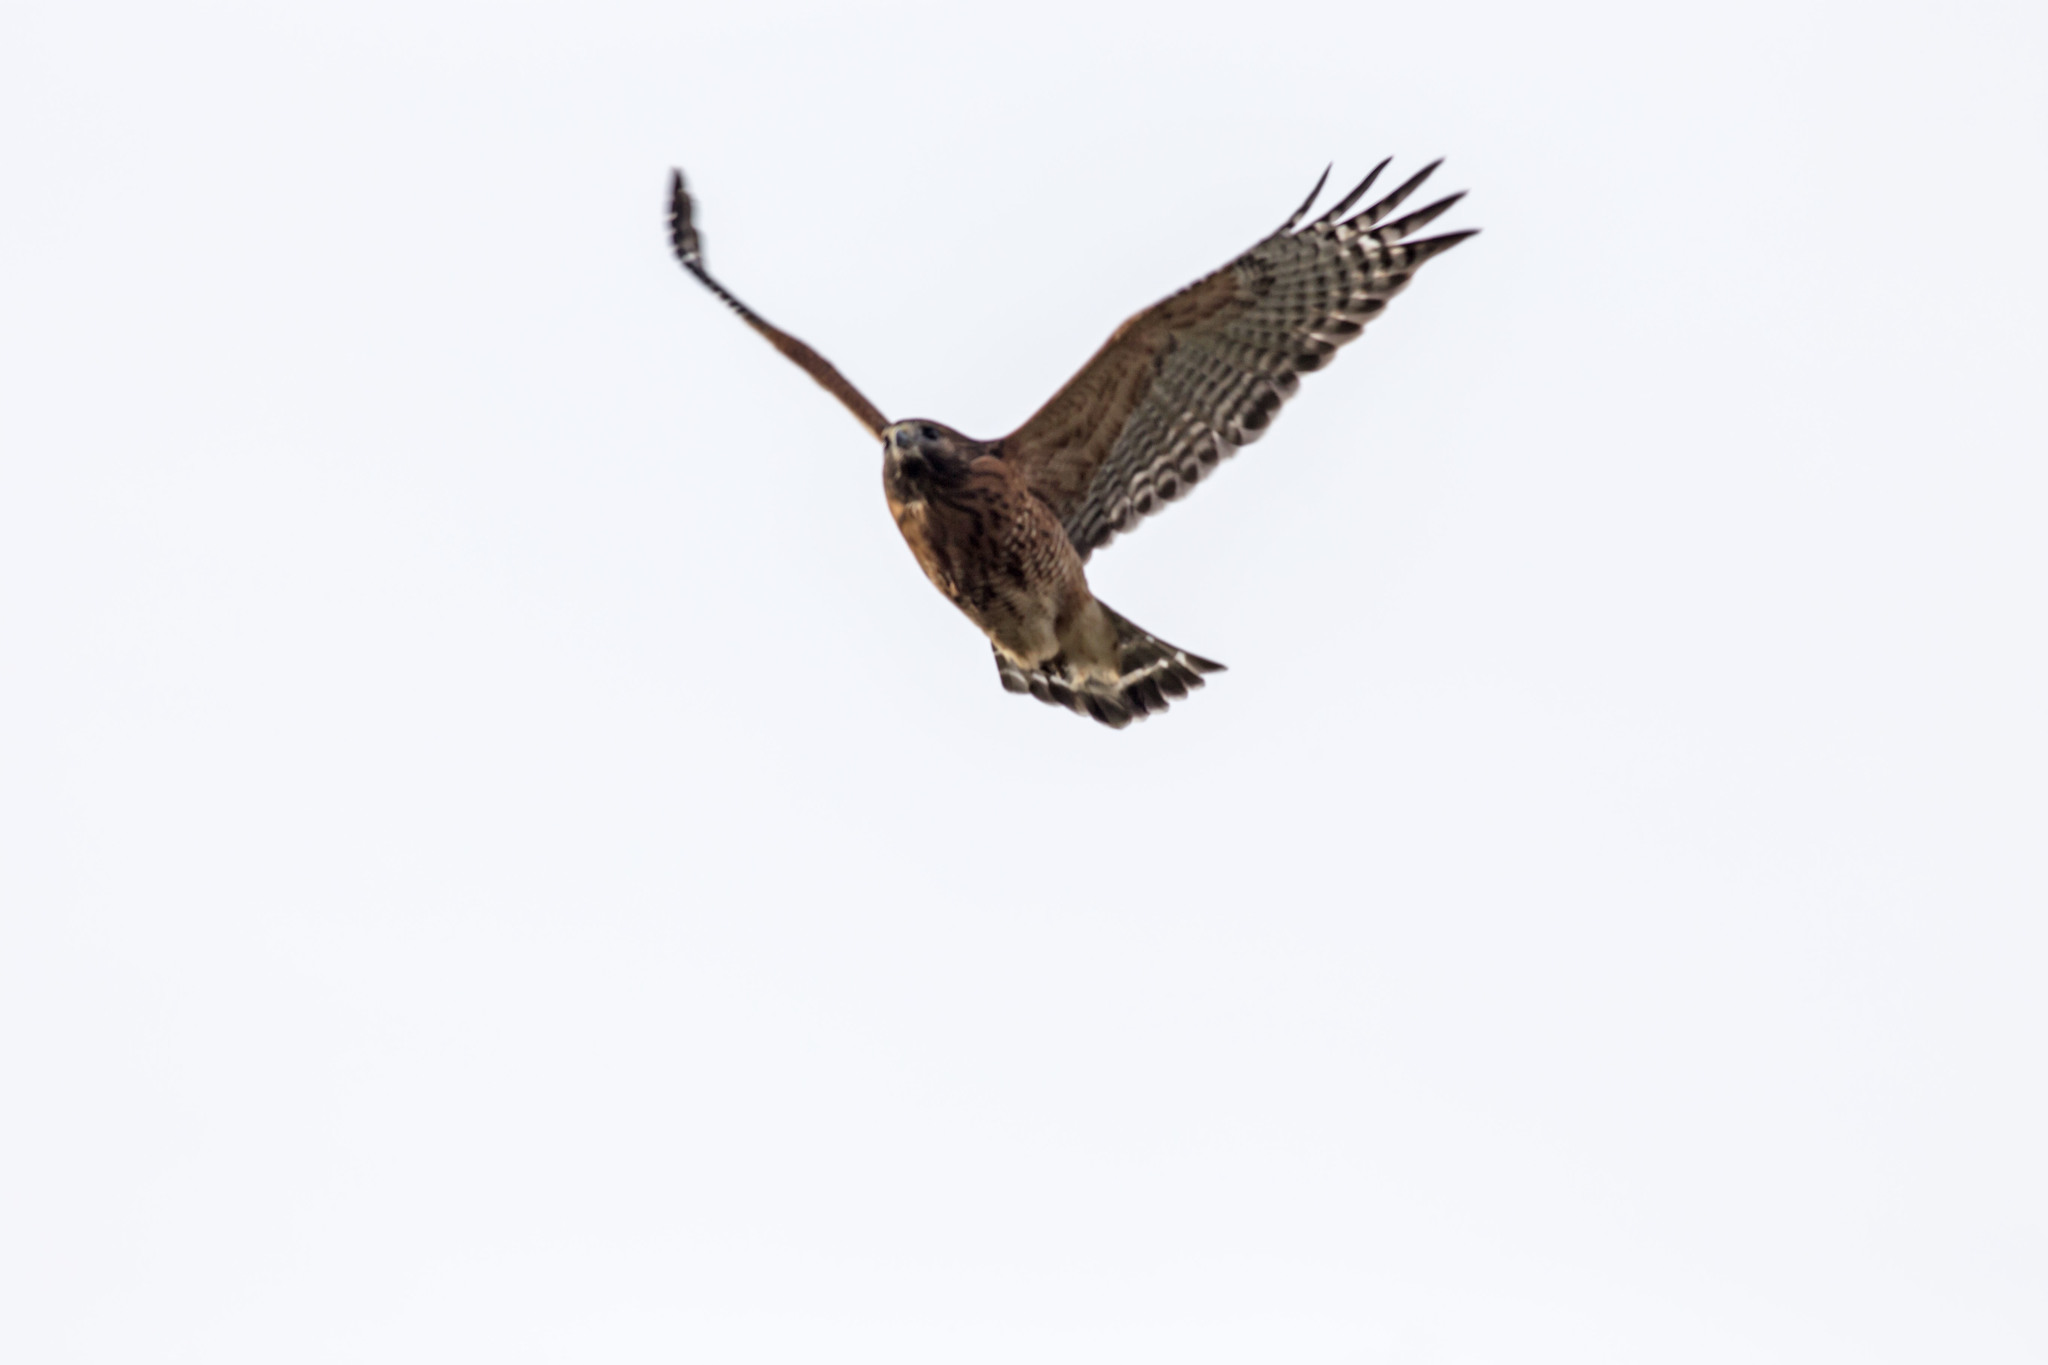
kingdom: Animalia
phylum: Chordata
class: Aves
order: Accipitriformes
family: Accipitridae
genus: Buteo
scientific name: Buteo lineatus
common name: Red-shouldered hawk
